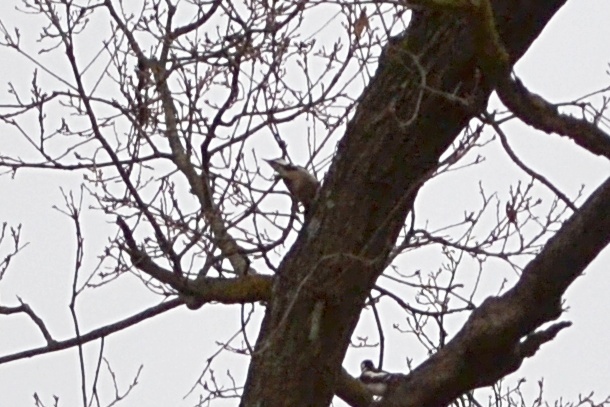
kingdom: Animalia
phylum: Chordata
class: Aves
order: Piciformes
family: Picidae
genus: Dendrocopos
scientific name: Dendrocopos major
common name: Great spotted woodpecker
